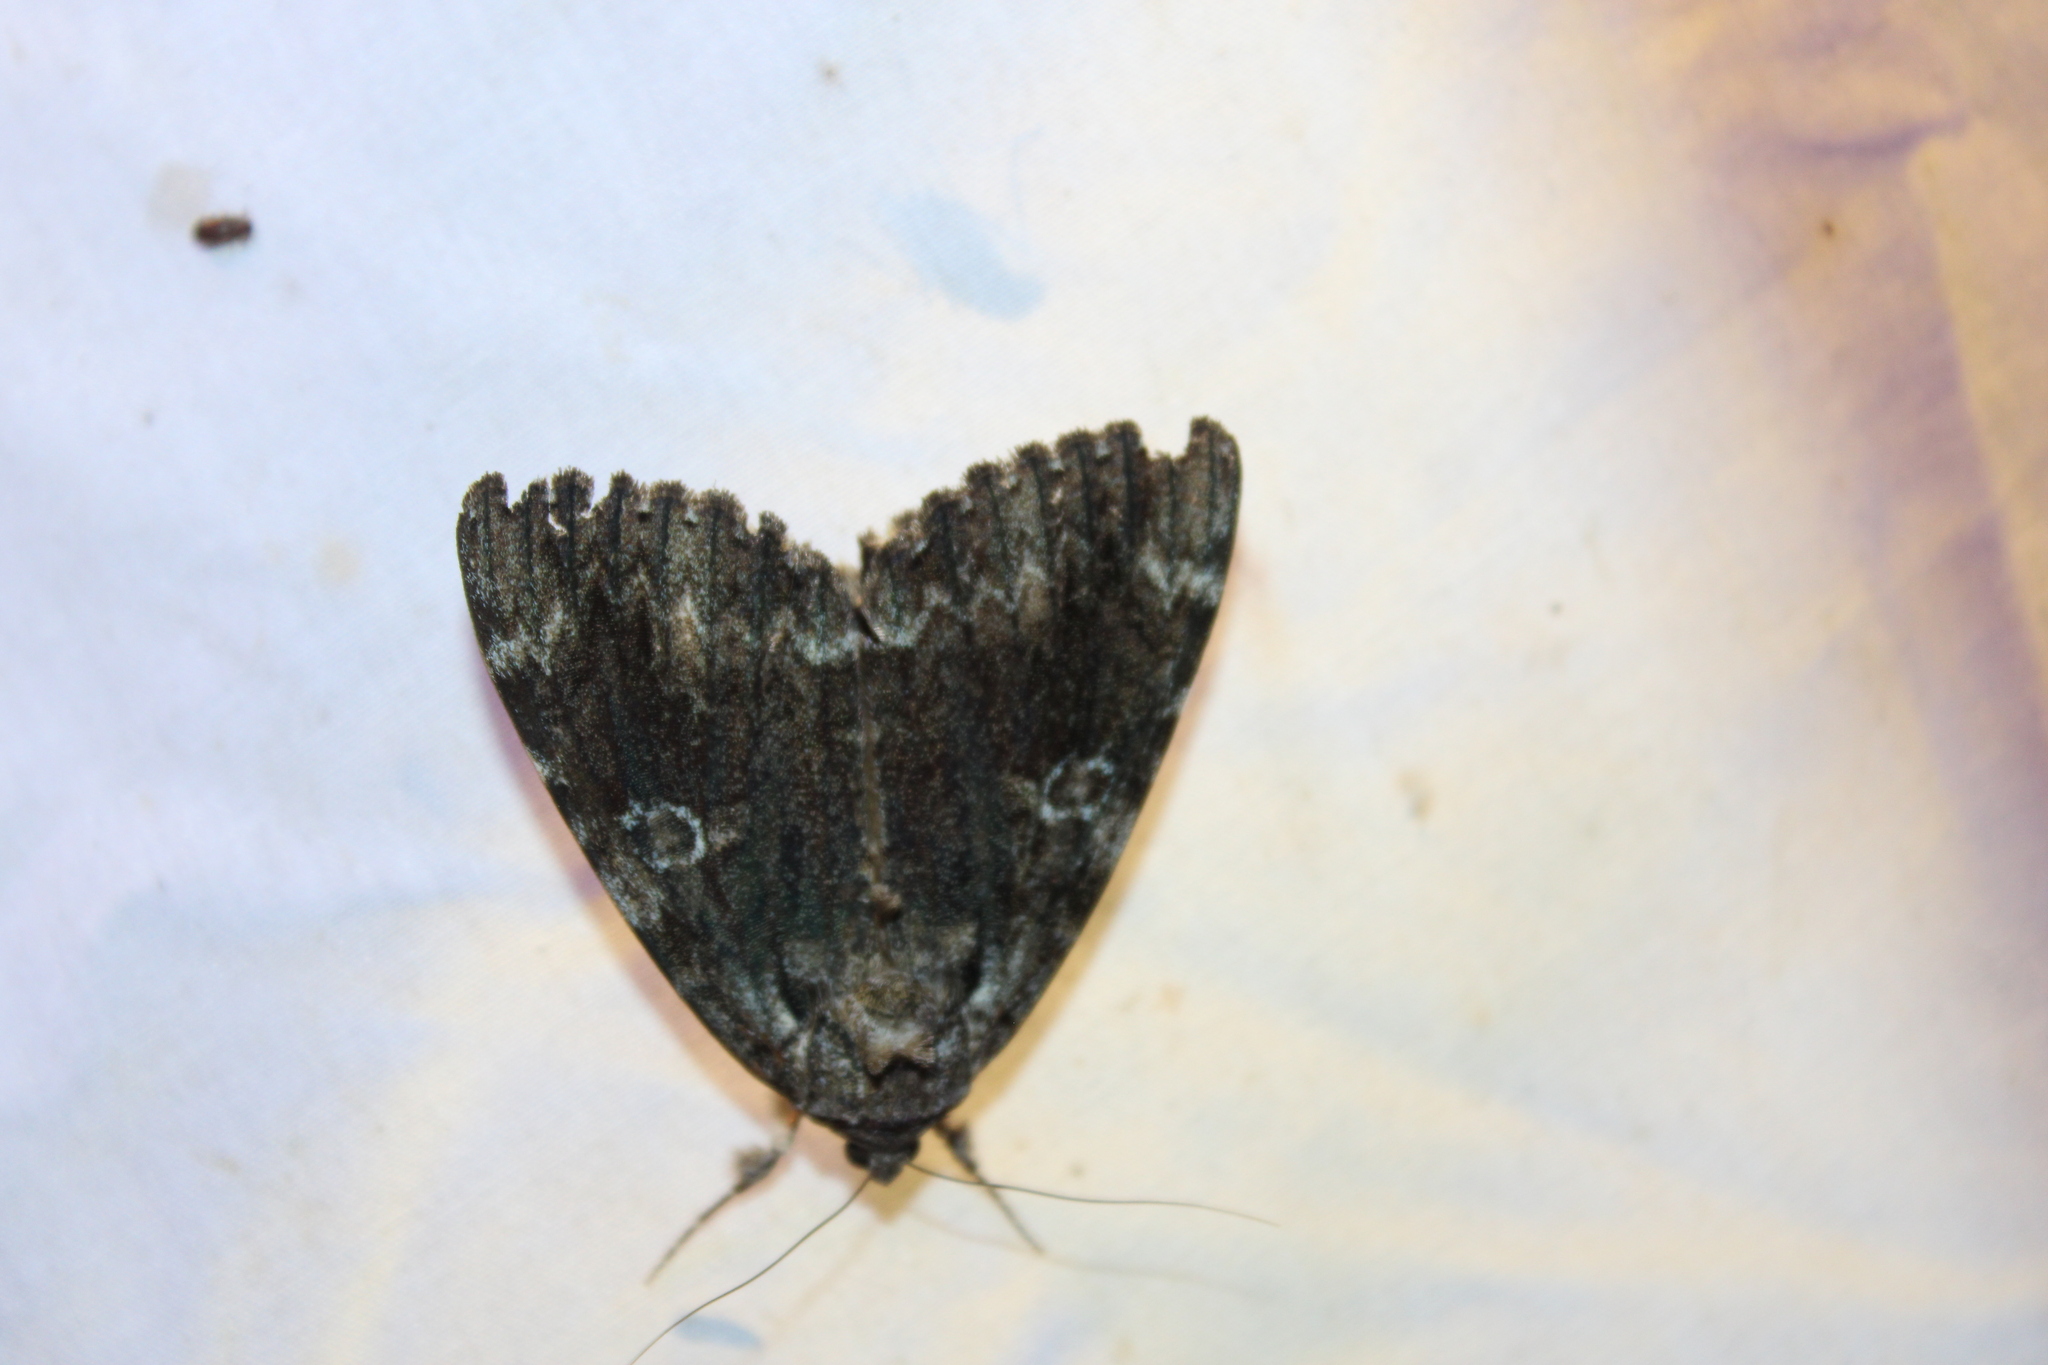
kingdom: Animalia
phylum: Arthropoda
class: Insecta
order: Lepidoptera
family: Erebidae
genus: Catocala
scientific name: Catocala ilia
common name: Ilia underwing
